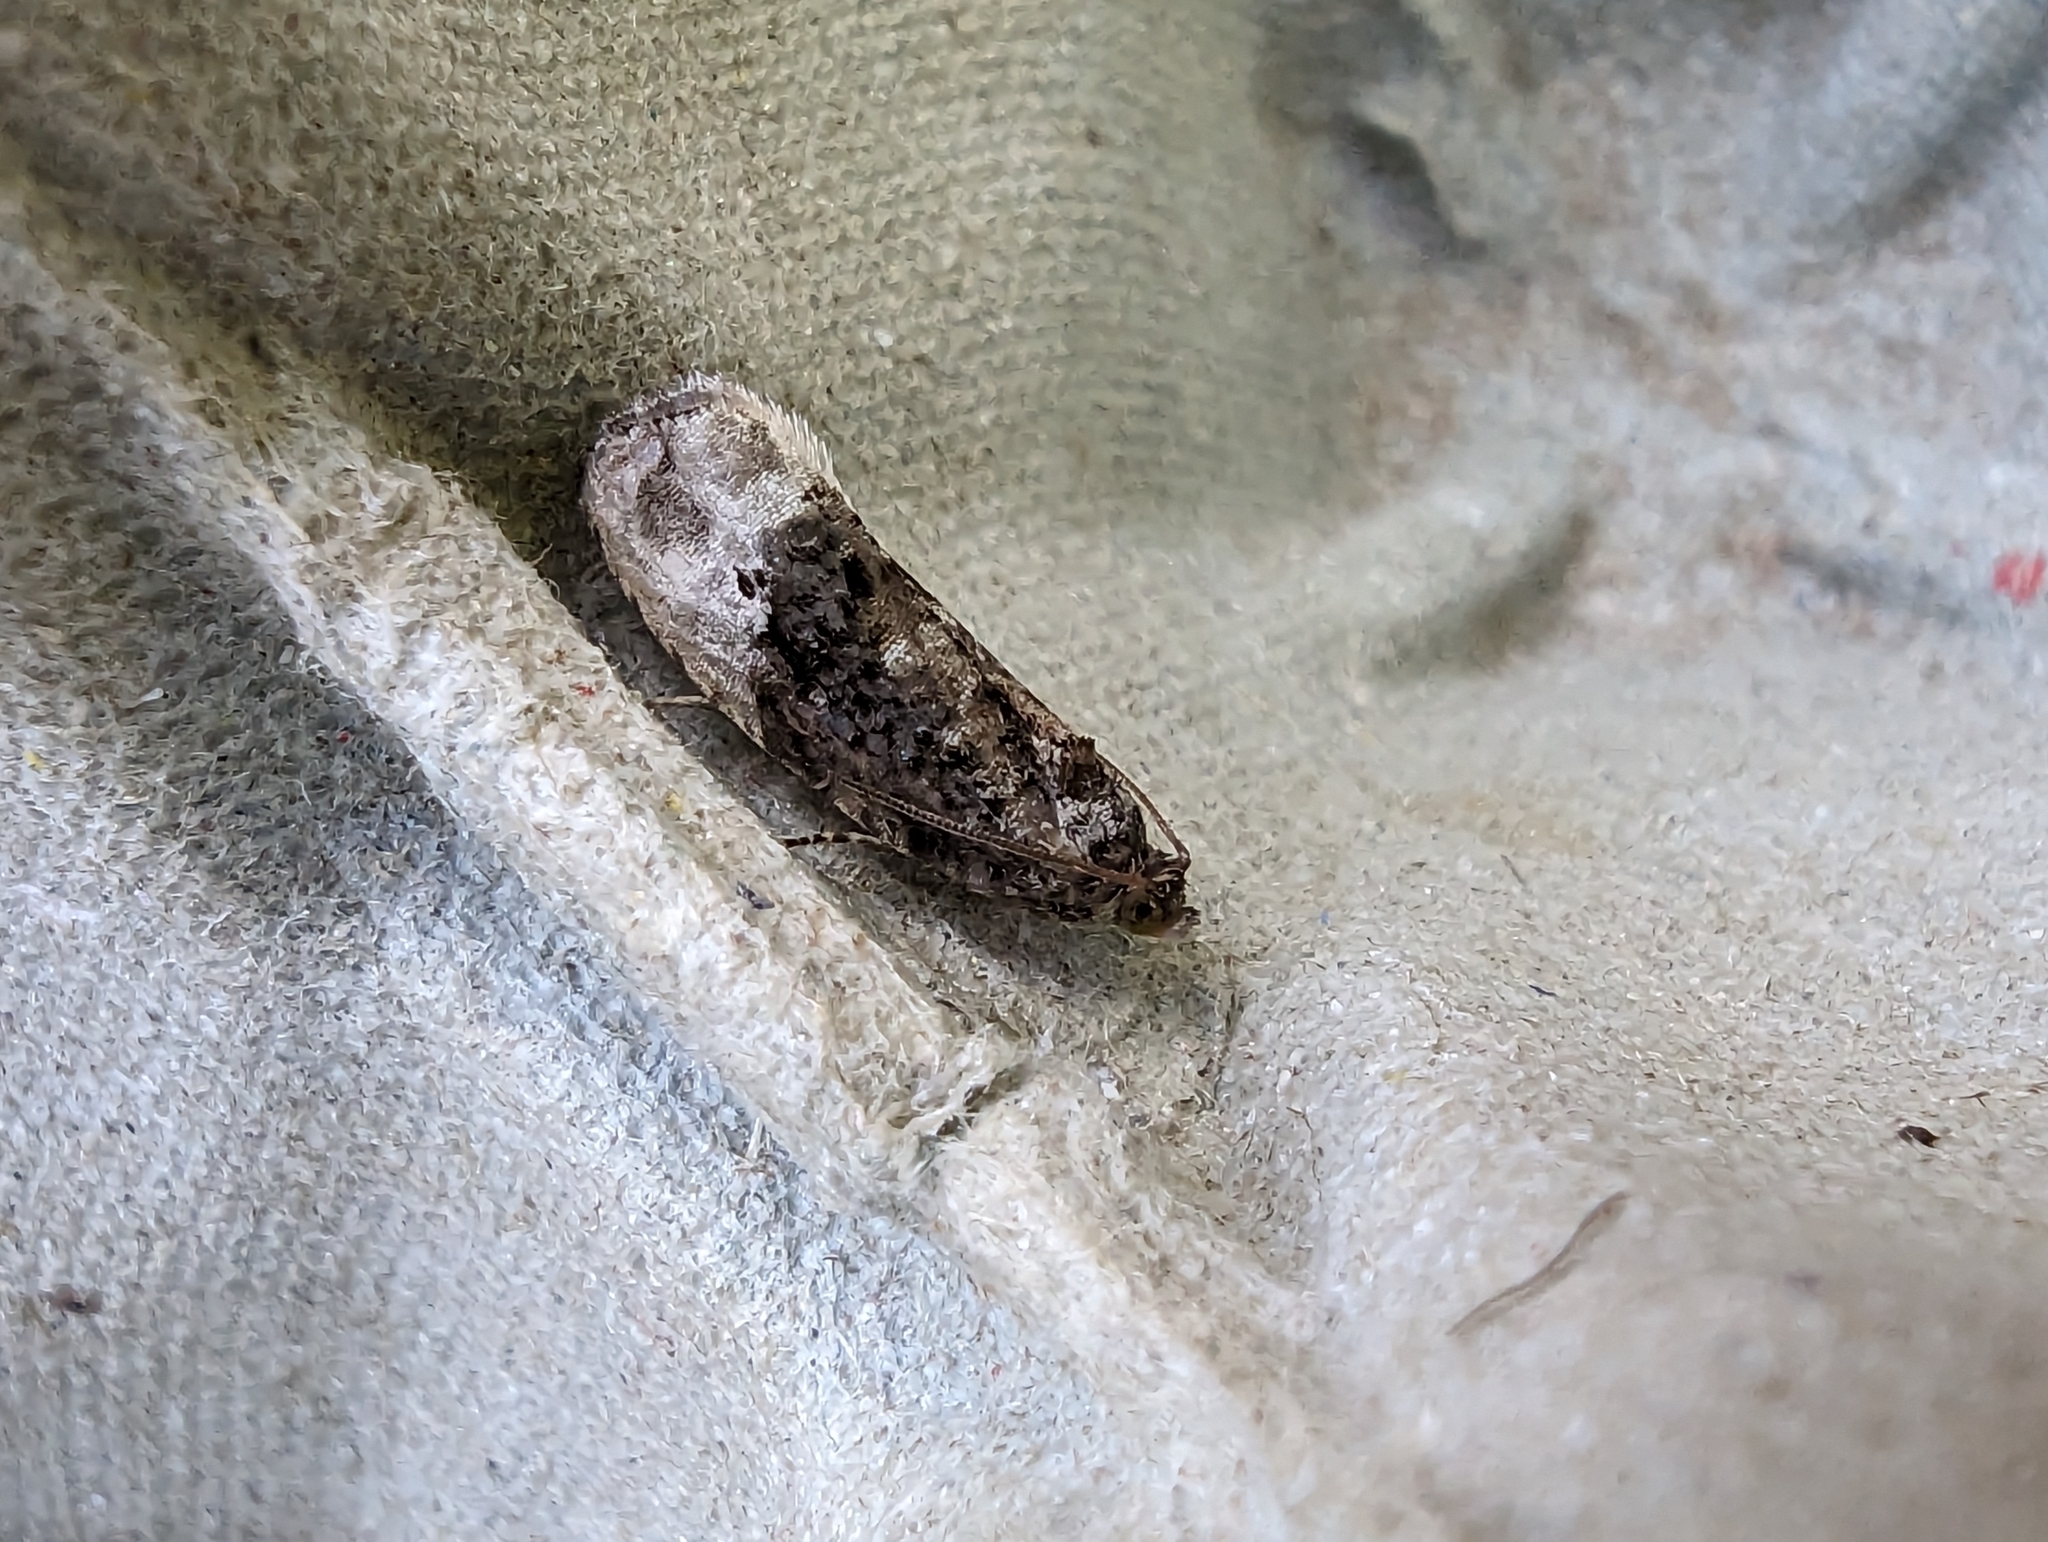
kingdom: Animalia
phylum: Arthropoda
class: Insecta
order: Lepidoptera
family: Tortricidae
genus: Hedya
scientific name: Hedya nubiferana
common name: Marbled orchard tortrix
